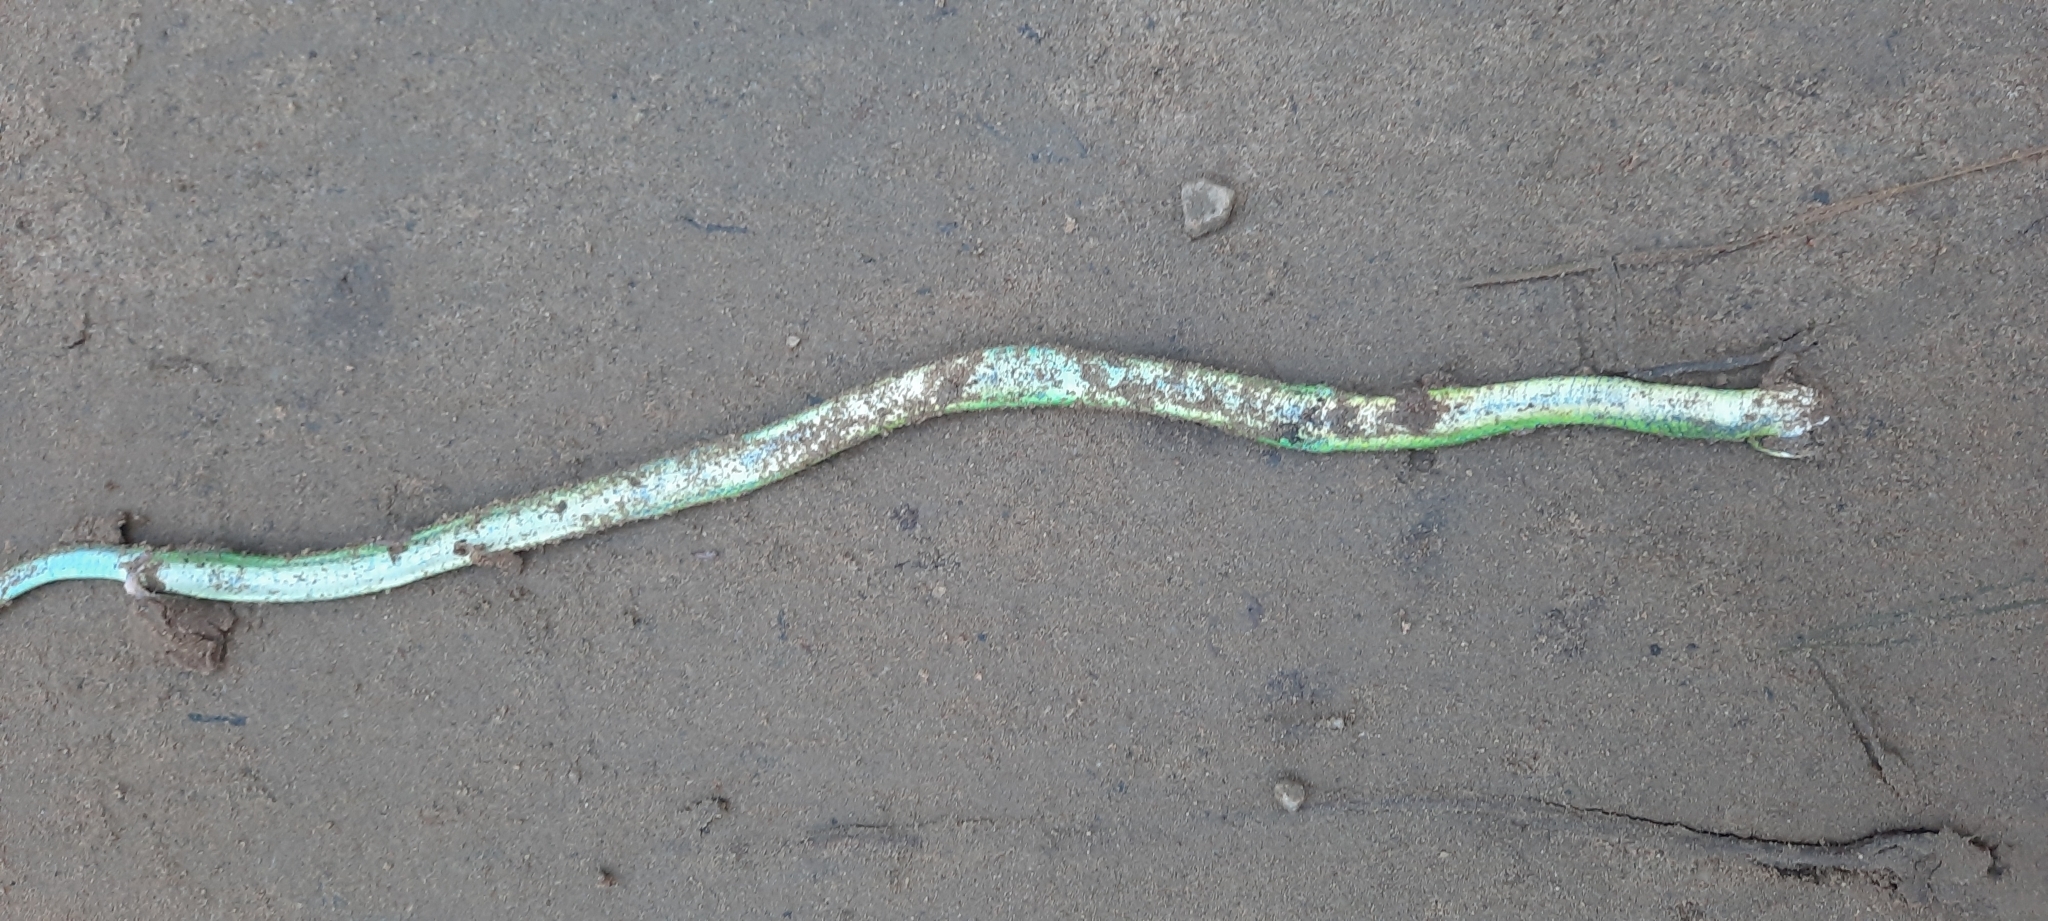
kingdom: Animalia
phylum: Chordata
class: Squamata
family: Colubridae
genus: Philothamnus
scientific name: Philothamnus occidentalis
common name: Western natal green snake
